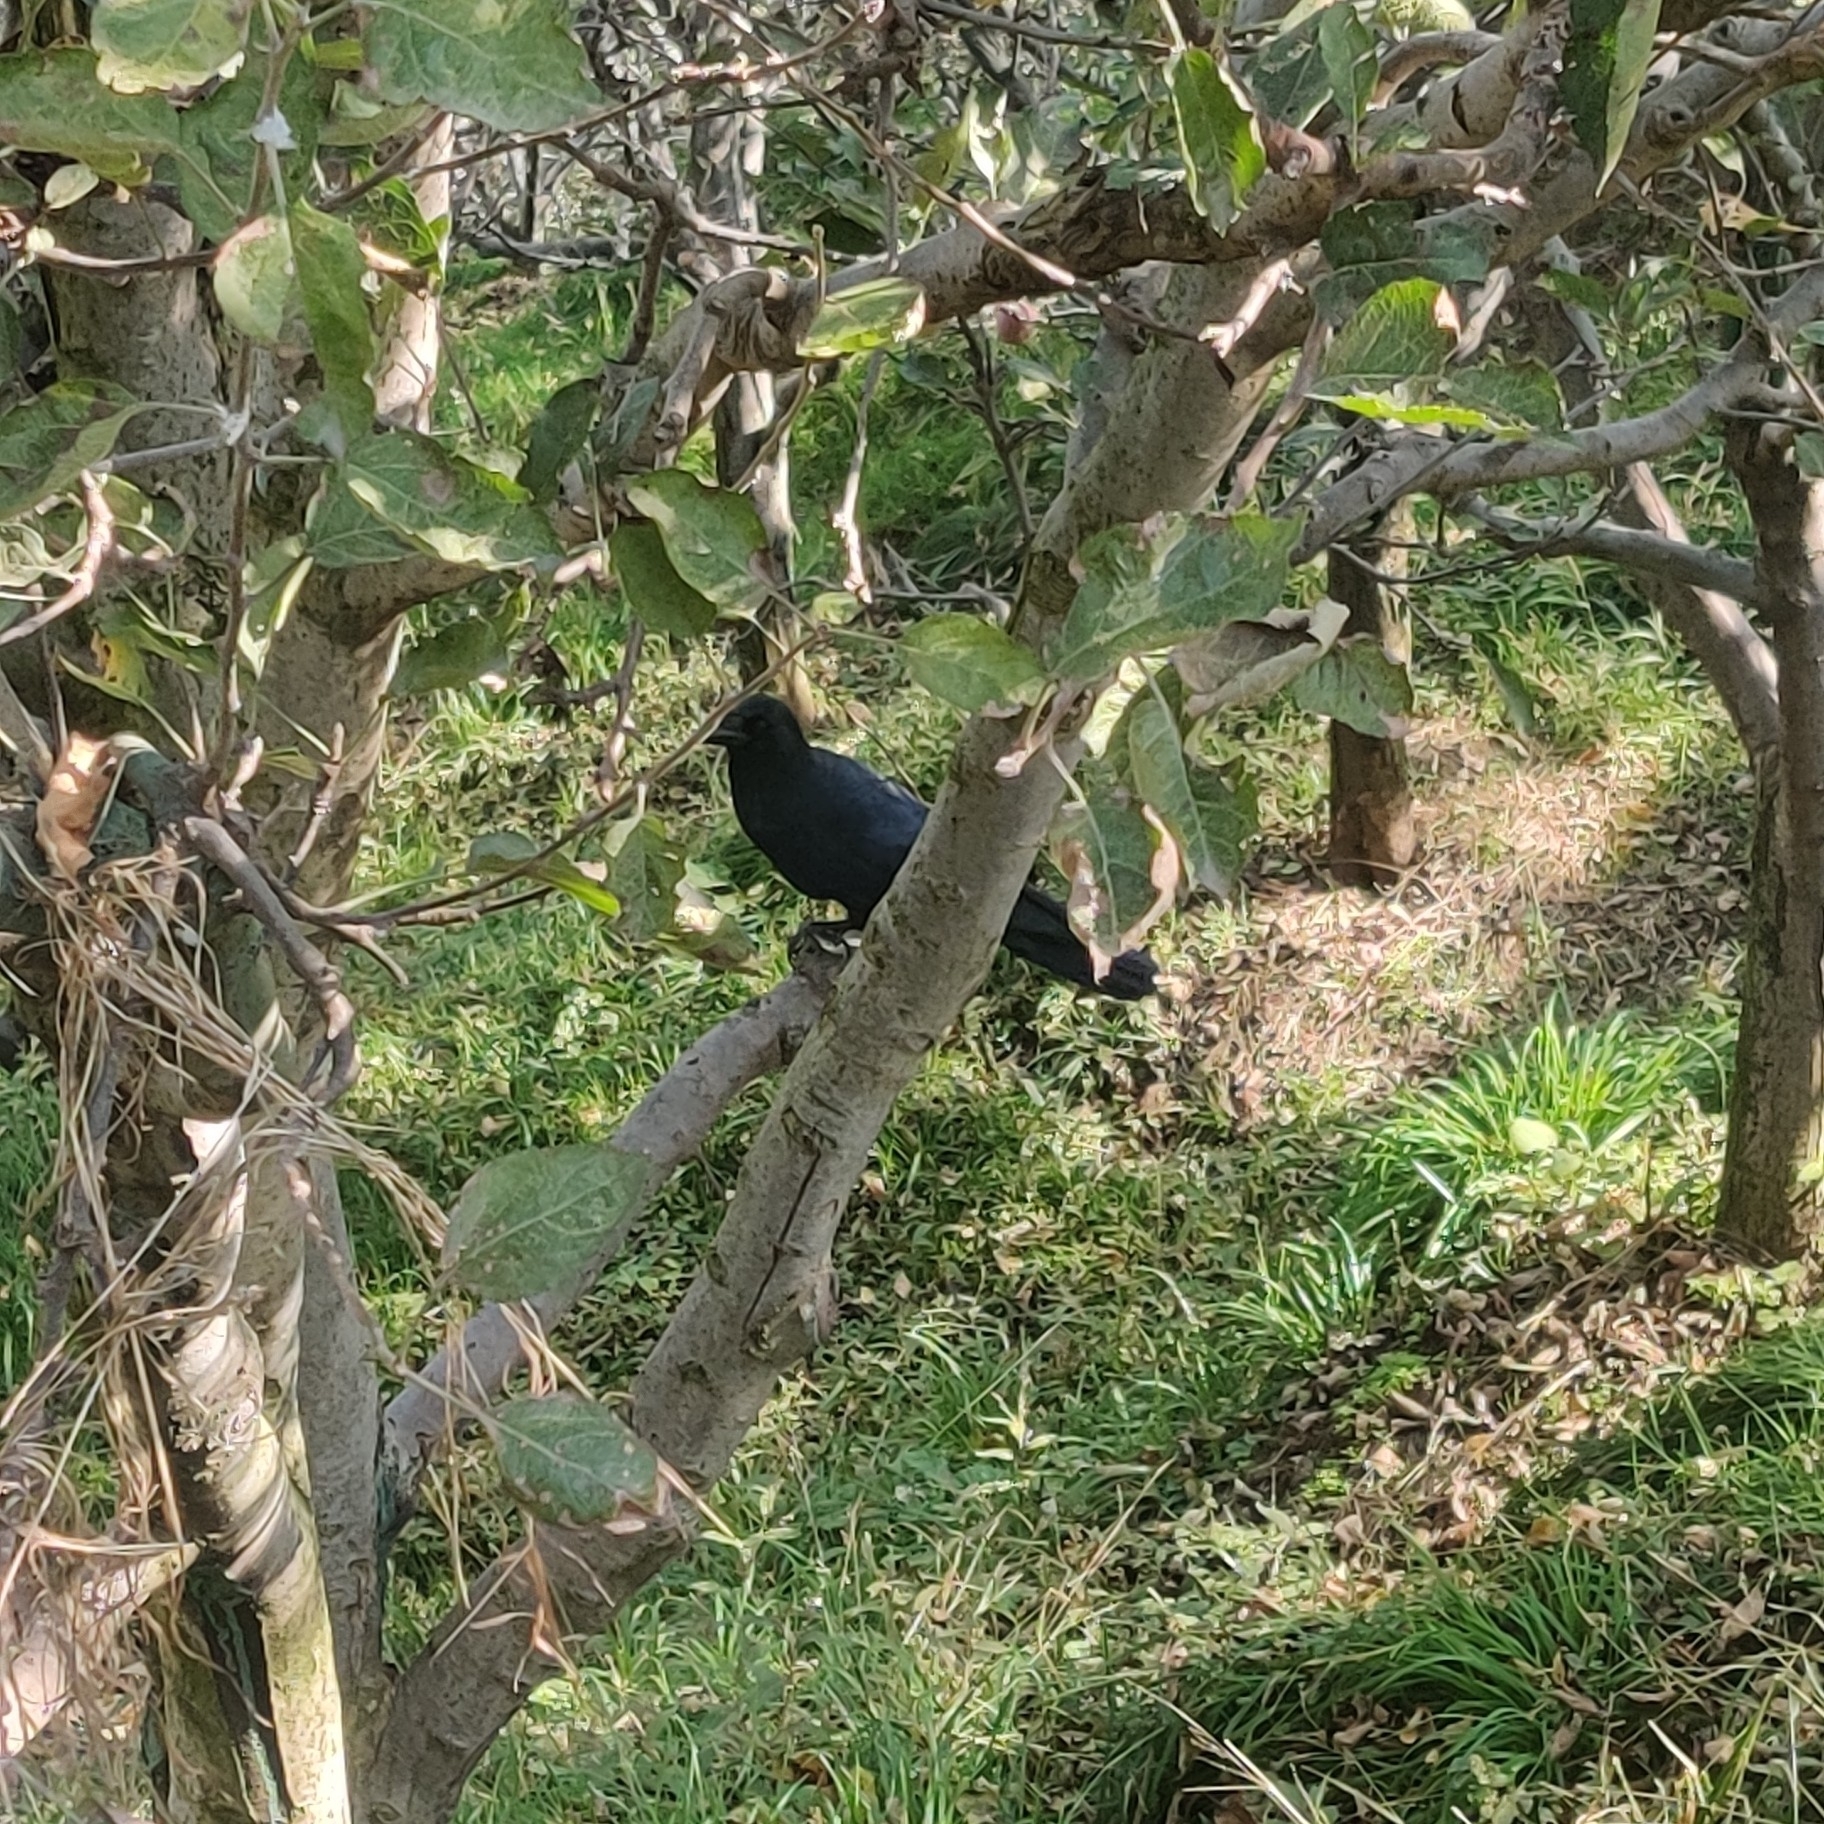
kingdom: Animalia
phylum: Chordata
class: Aves
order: Passeriformes
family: Corvidae
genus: Corvus
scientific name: Corvus macrorhynchos
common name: Large-billed crow
